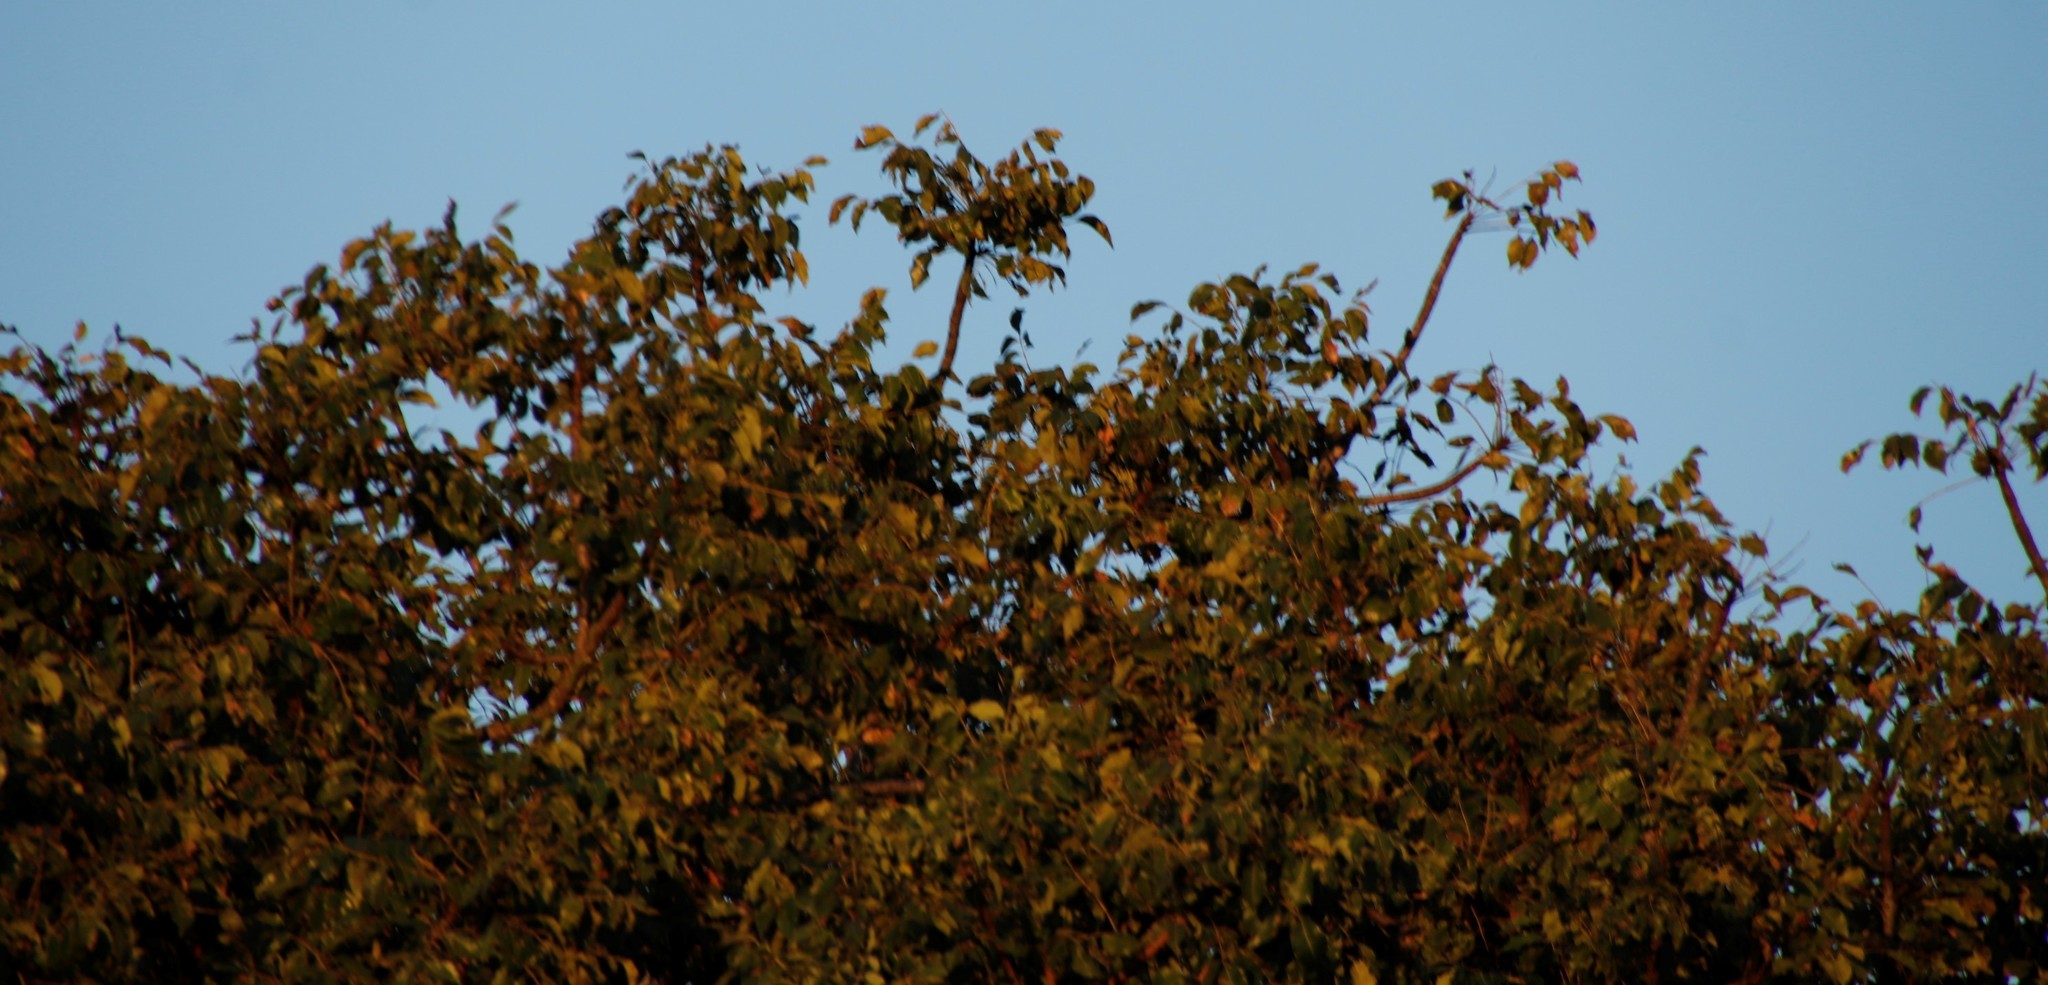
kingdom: Plantae
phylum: Tracheophyta
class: Magnoliopsida
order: Sapindales
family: Anacardiaceae
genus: Sclerocarya
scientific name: Sclerocarya birrea
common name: Marula
